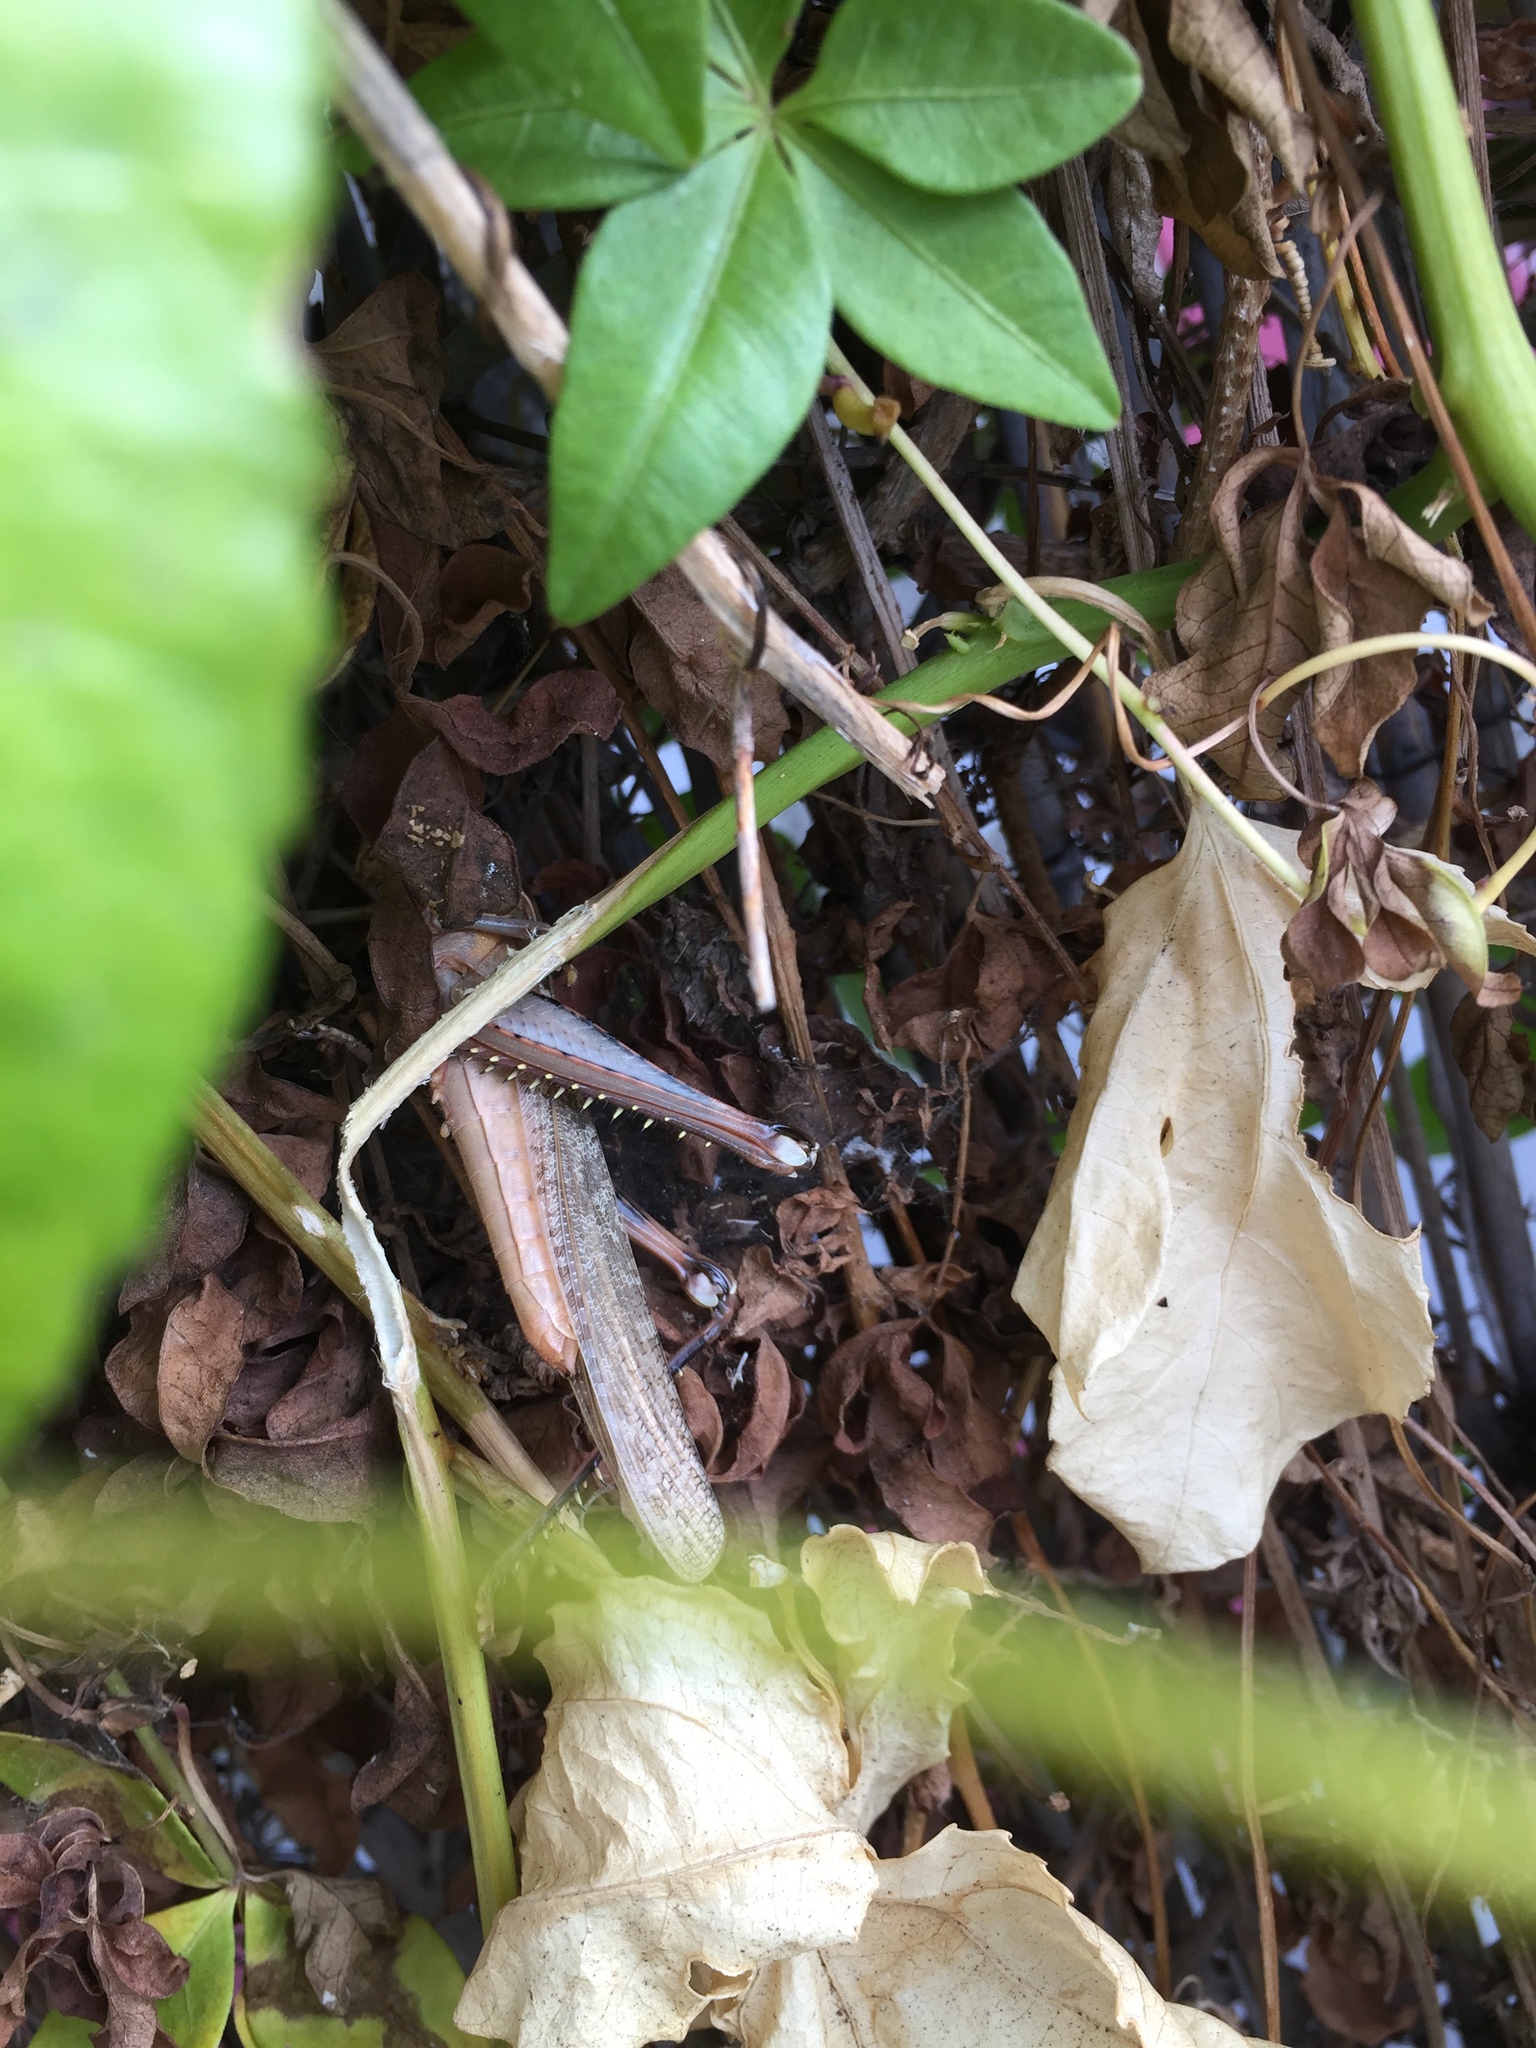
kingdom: Animalia
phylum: Arthropoda
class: Insecta
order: Orthoptera
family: Acrididae
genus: Schistocerca
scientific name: Schistocerca nitens
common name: Vagrant grasshopper
